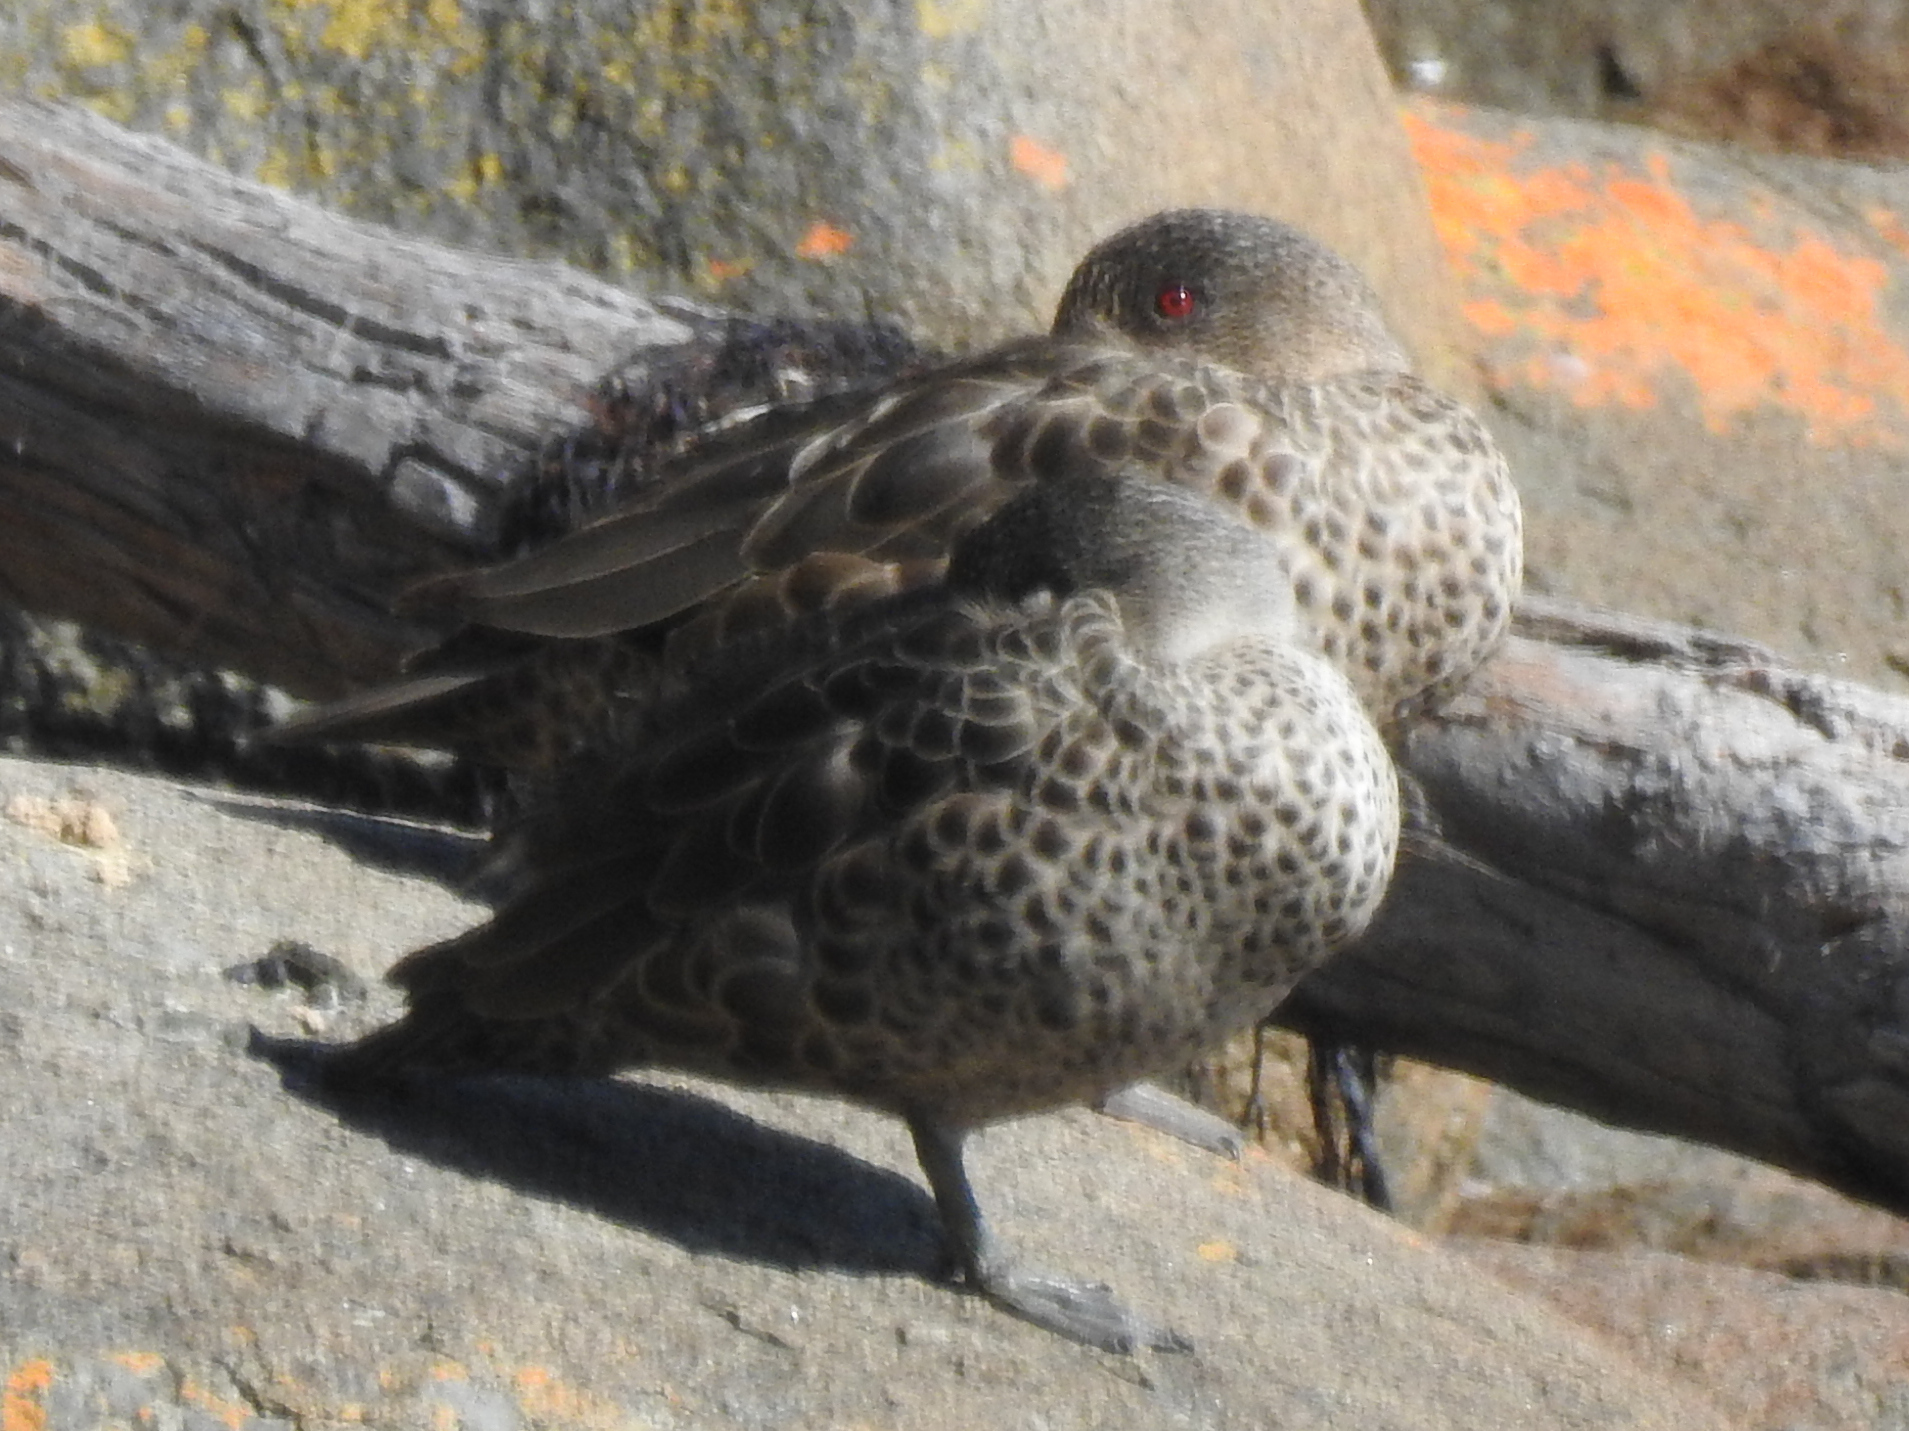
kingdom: Animalia
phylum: Chordata
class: Aves
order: Anseriformes
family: Anatidae
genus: Anas
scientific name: Anas castanea
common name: Chestnut teal
